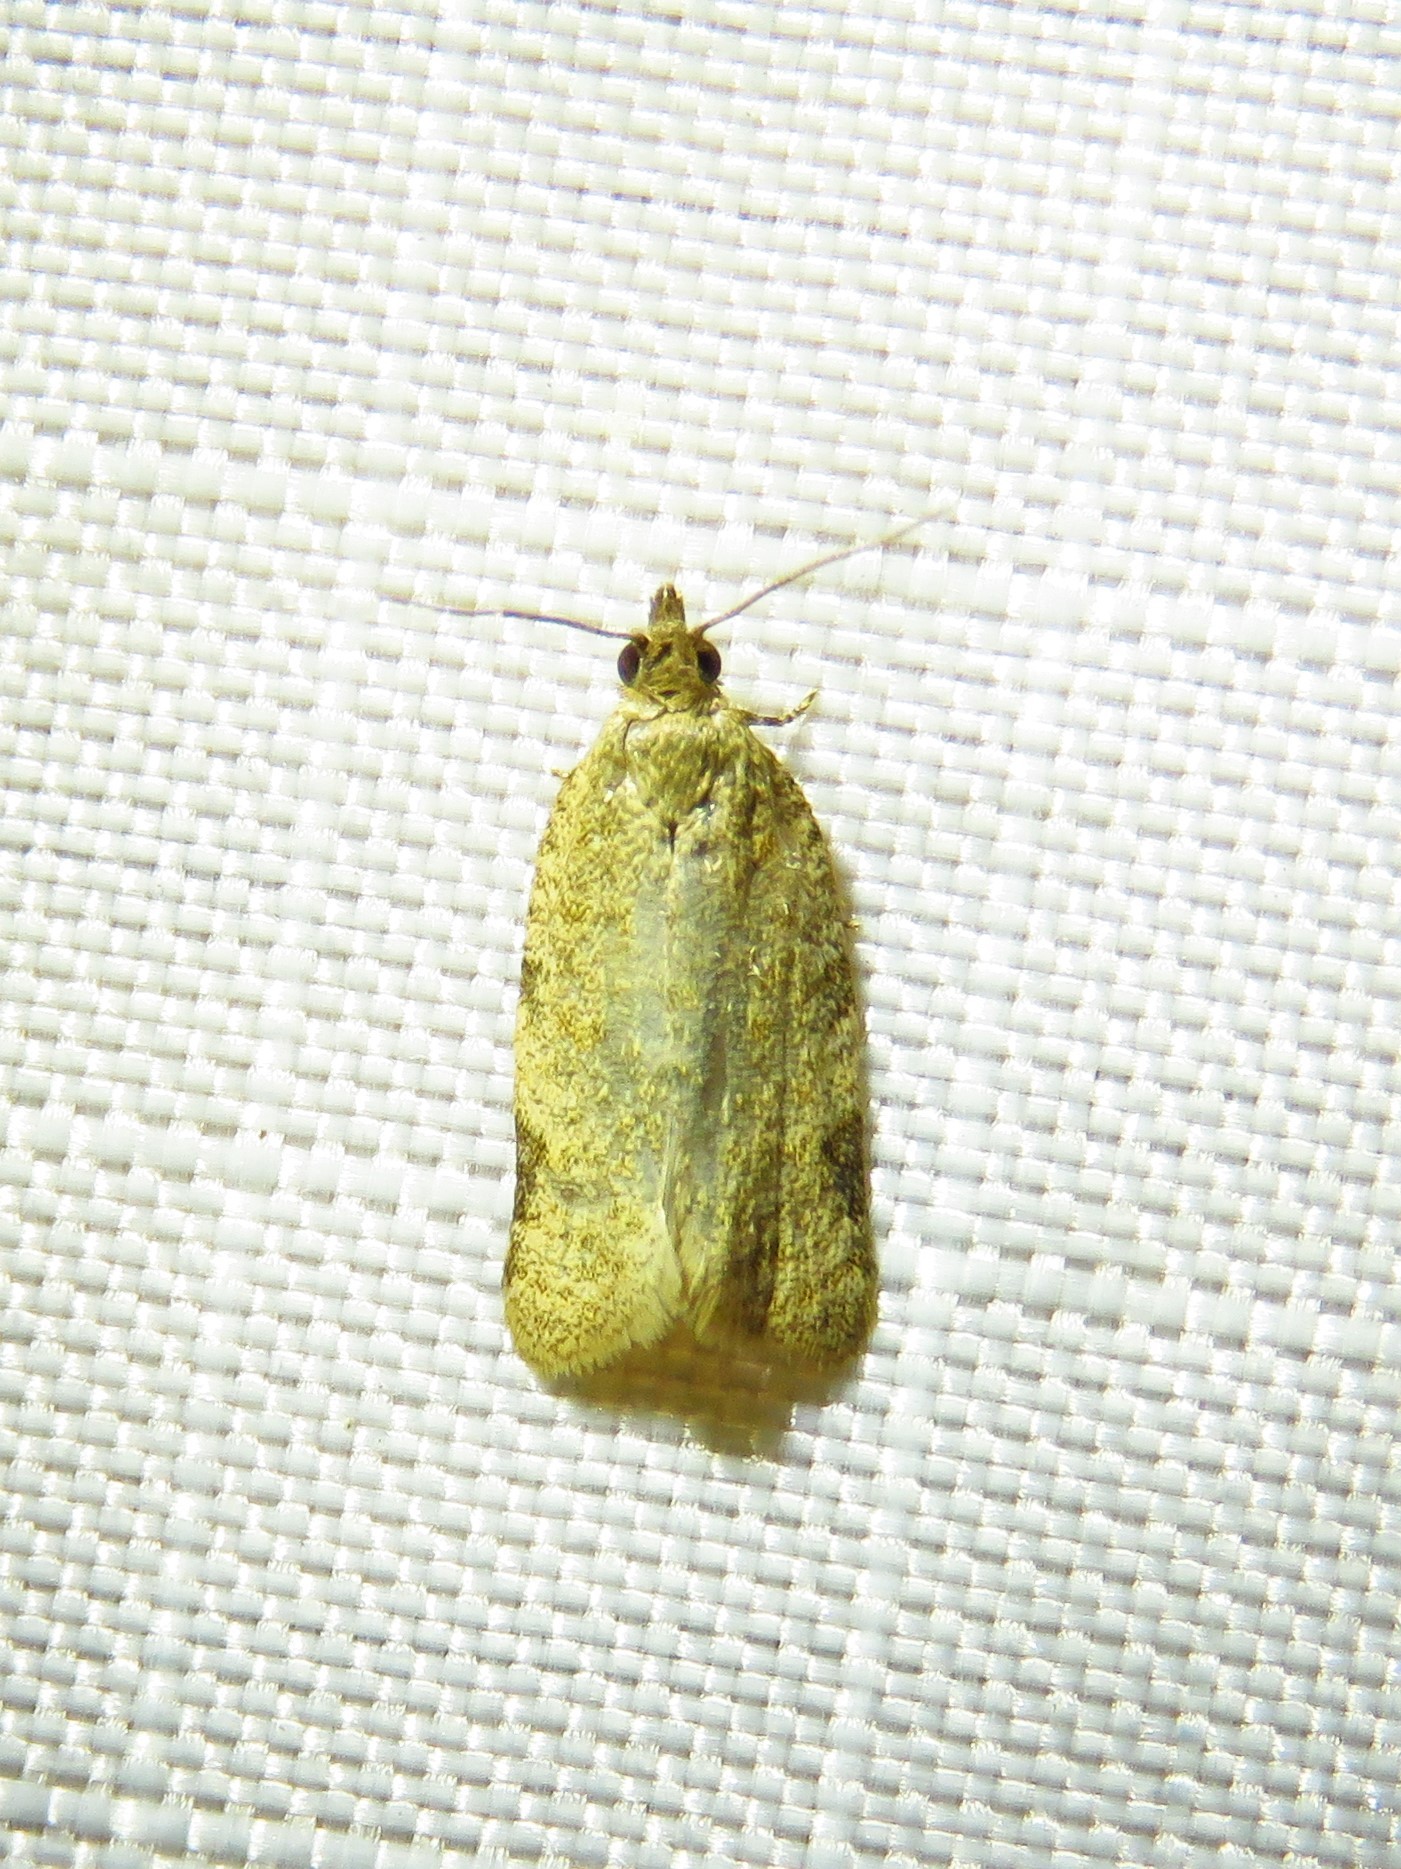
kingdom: Animalia
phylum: Arthropoda
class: Insecta
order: Lepidoptera
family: Tortricidae
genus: Clepsis
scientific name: Clepsis virescana
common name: Greenish apple moth
